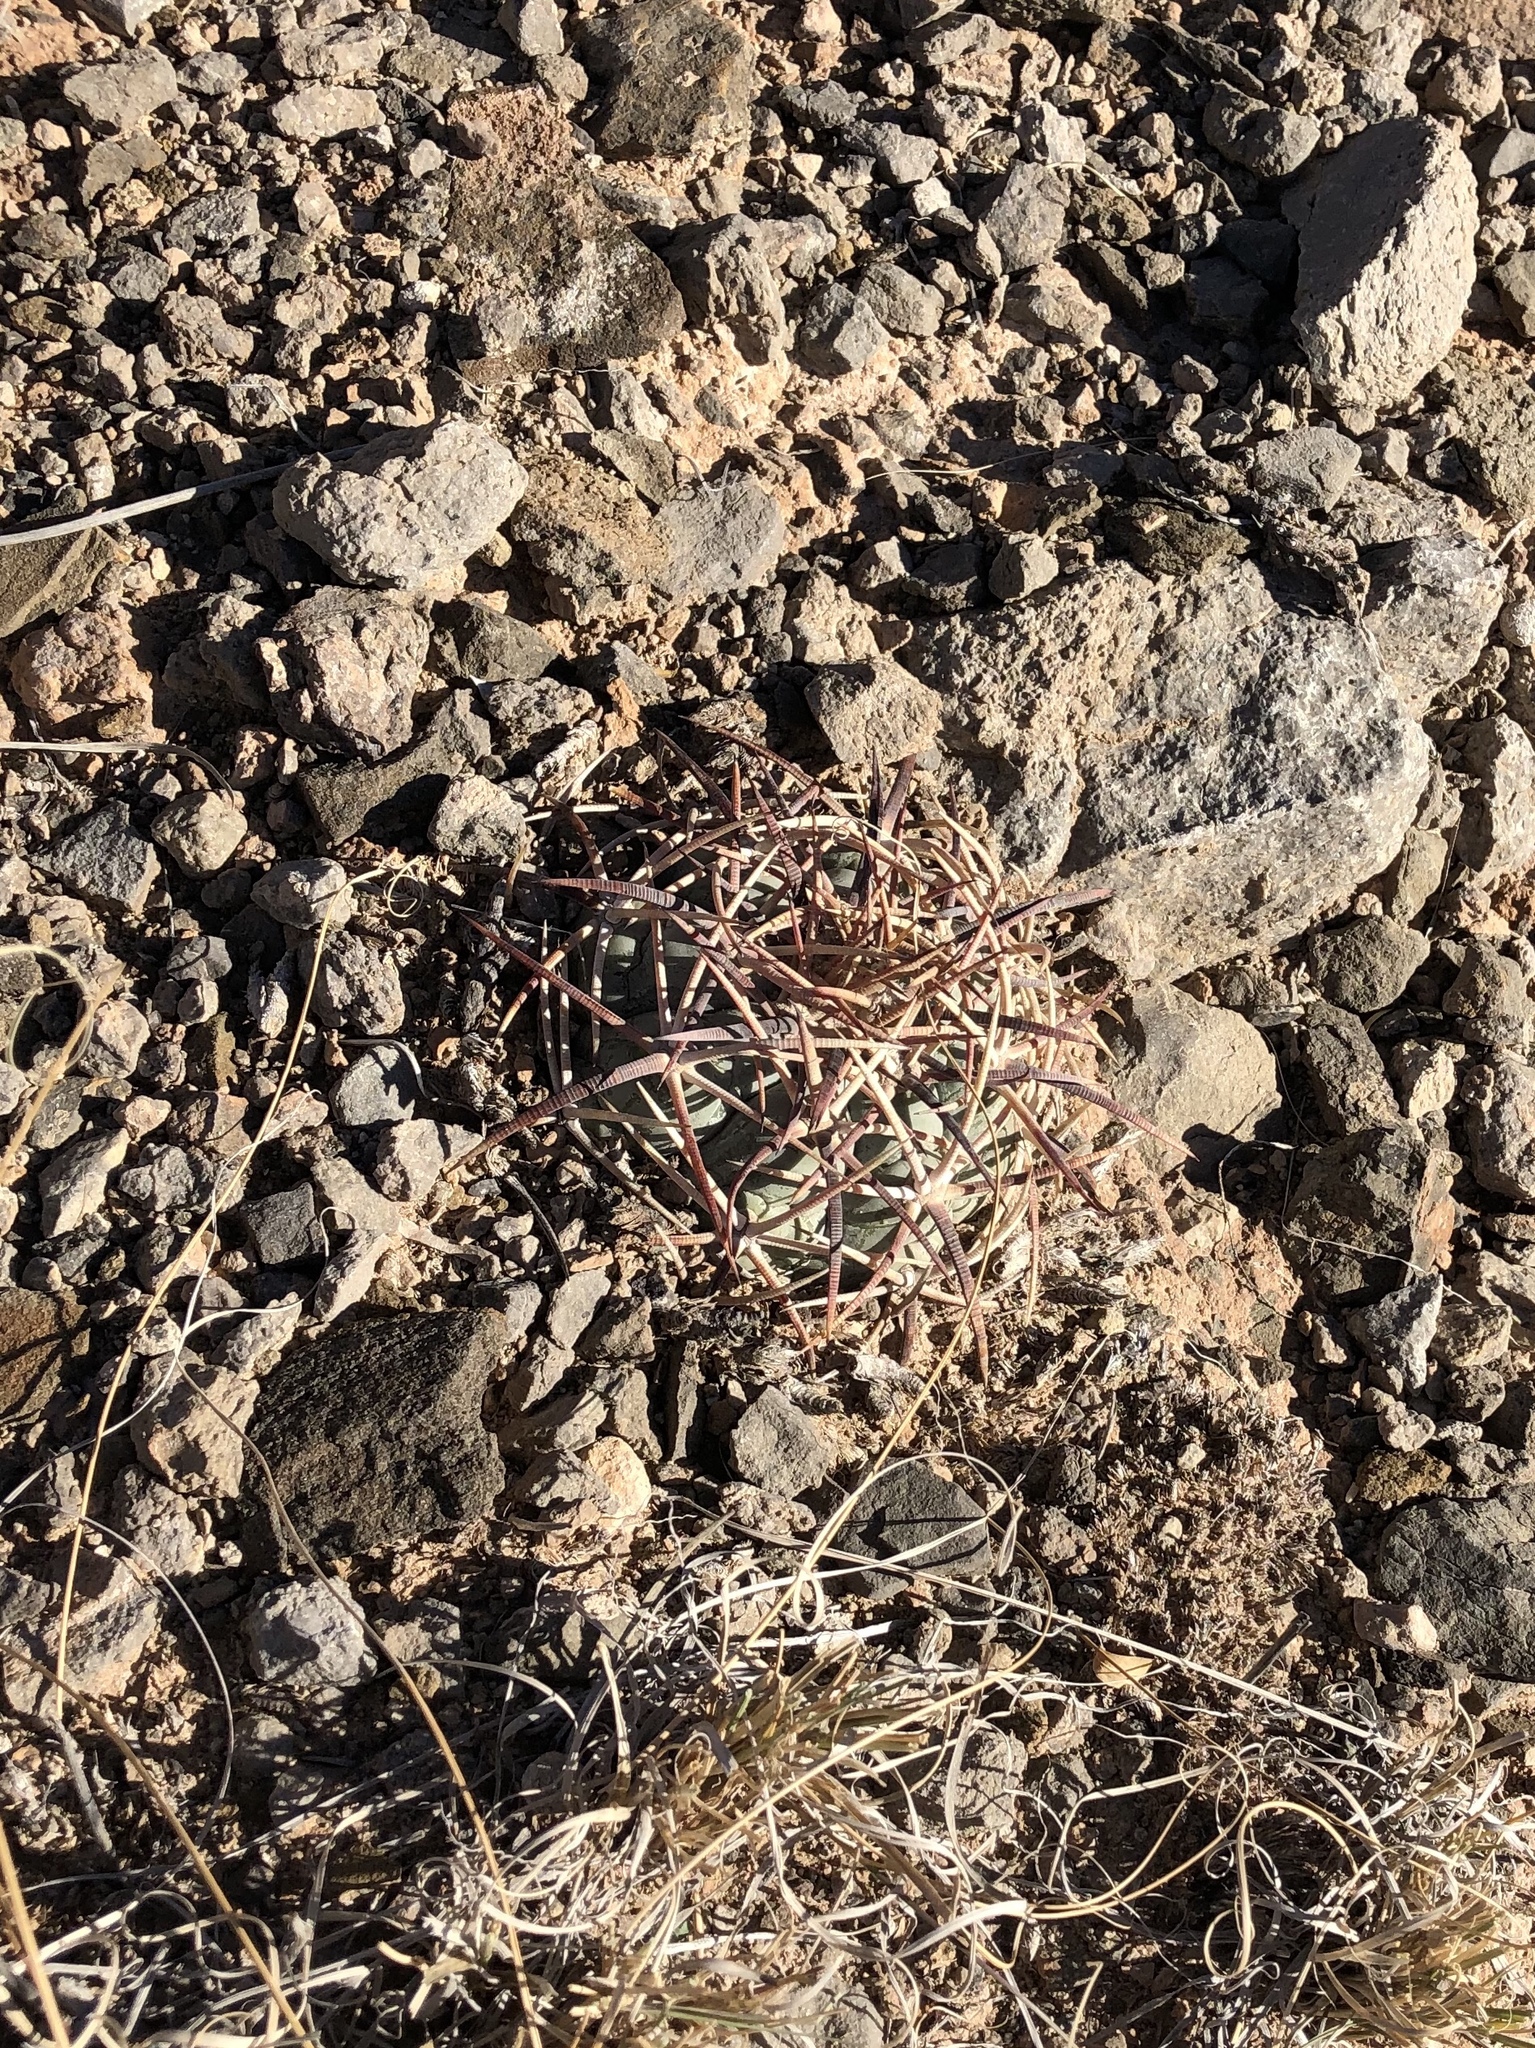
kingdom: Plantae
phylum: Tracheophyta
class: Magnoliopsida
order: Caryophyllales
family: Cactaceae
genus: Echinocactus
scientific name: Echinocactus horizonthalonius
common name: Devilshead
